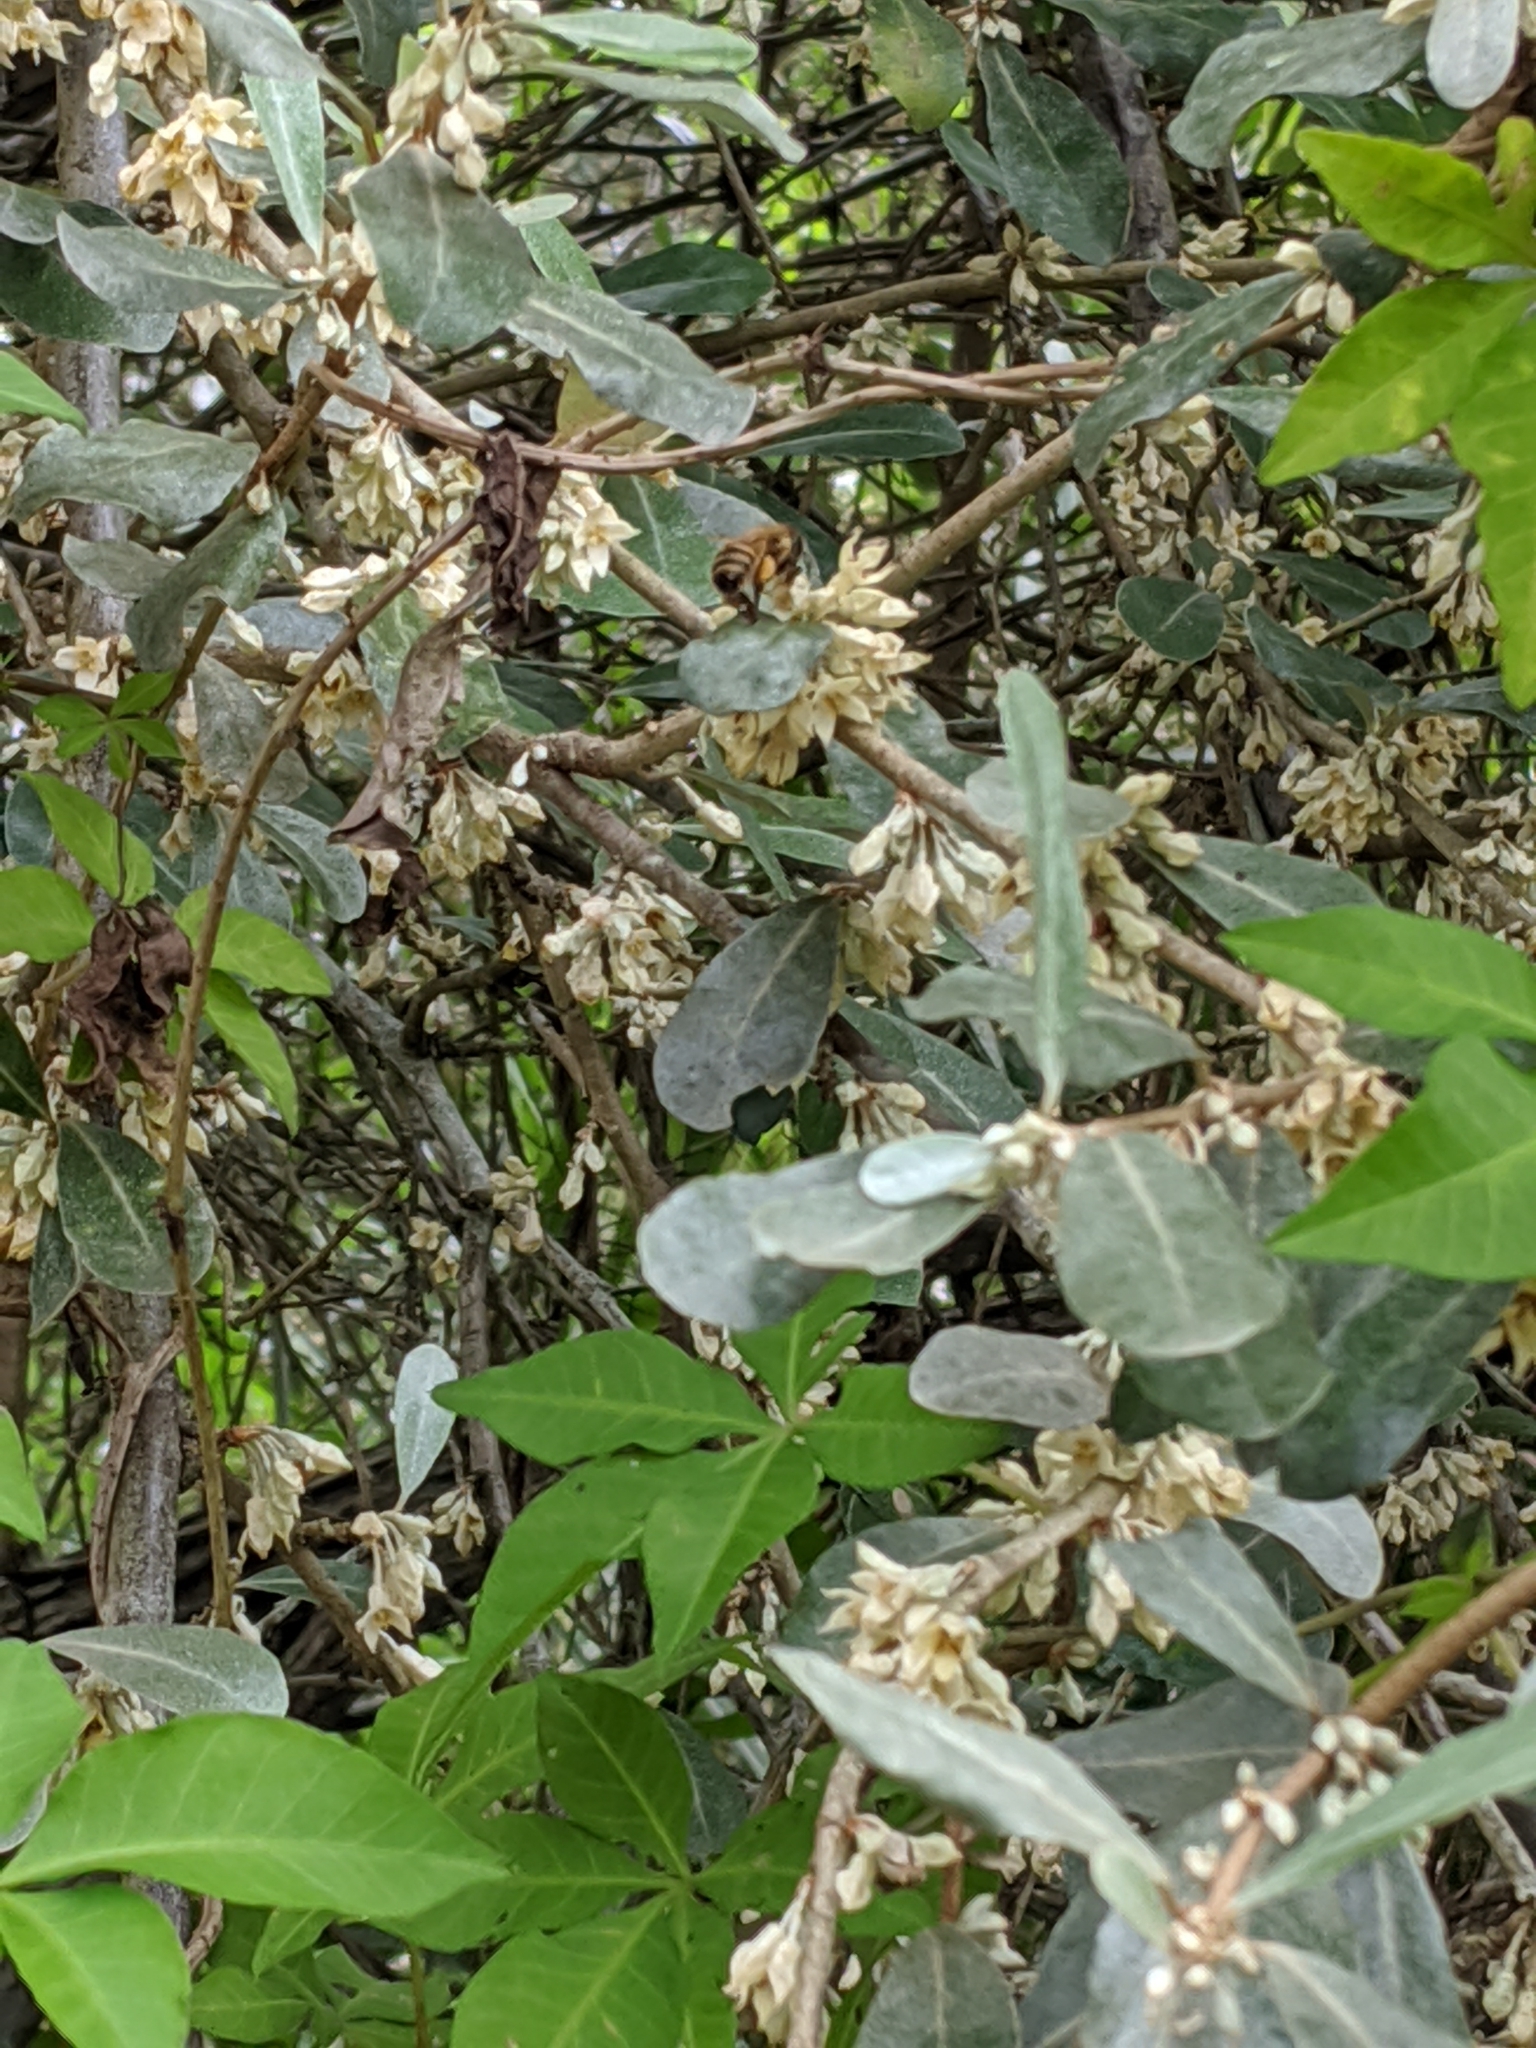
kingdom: Animalia
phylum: Arthropoda
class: Insecta
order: Hymenoptera
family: Apidae
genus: Apis
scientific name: Apis mellifera
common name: Honey bee
